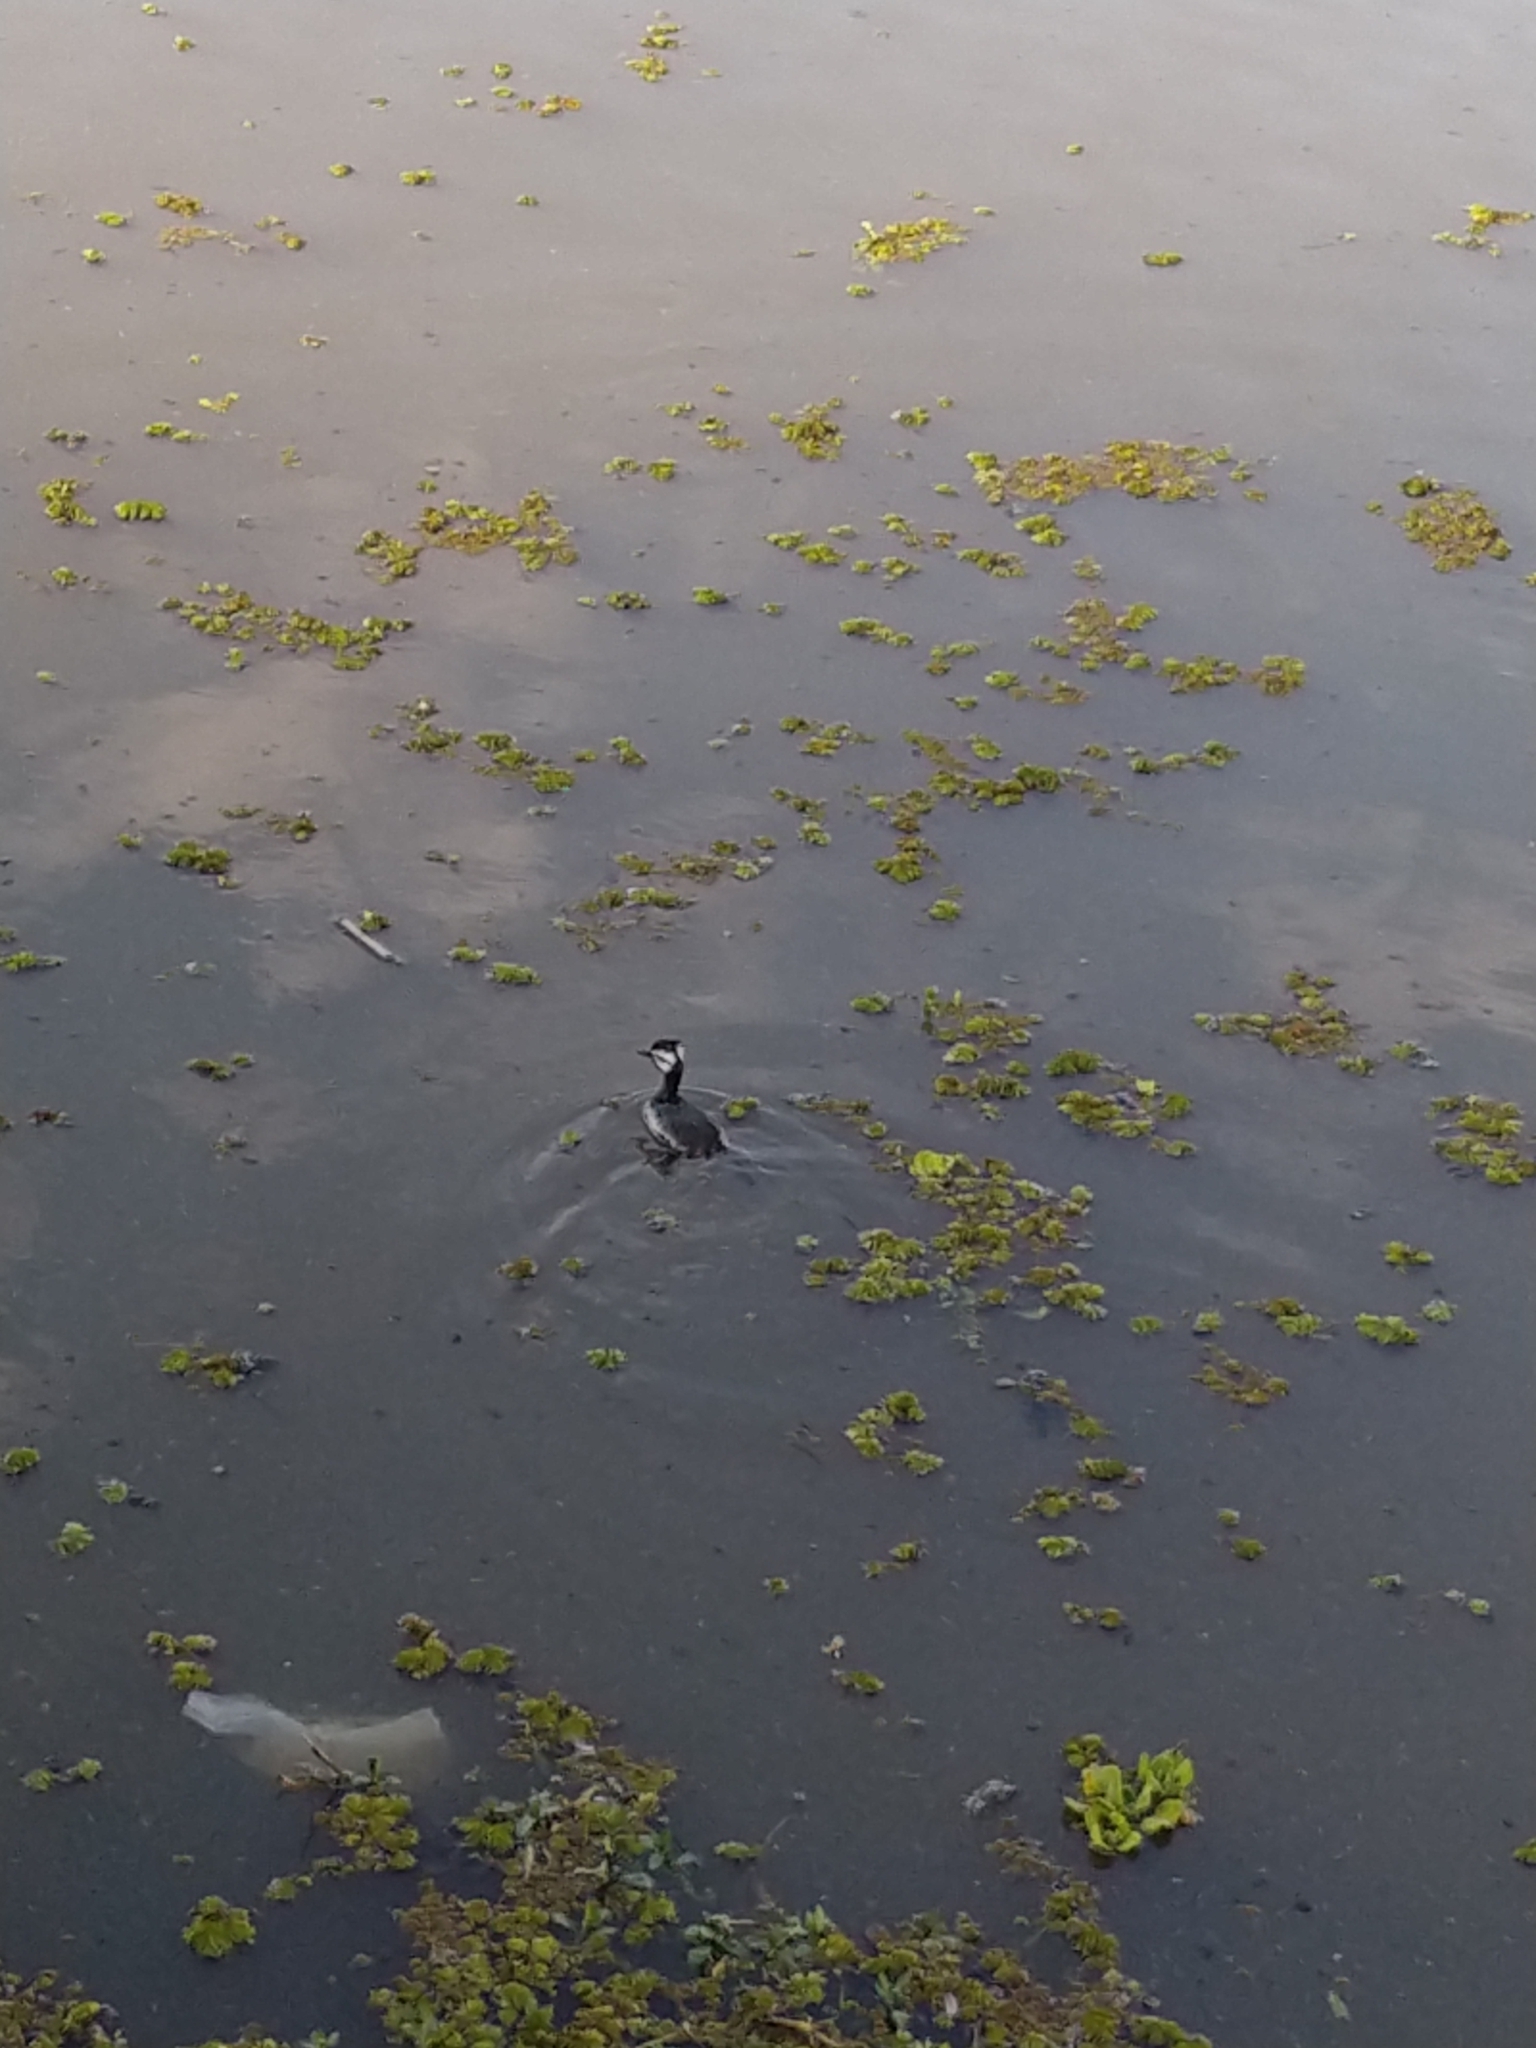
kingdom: Animalia
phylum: Chordata
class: Aves
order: Podicipediformes
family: Podicipedidae
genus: Rollandia
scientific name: Rollandia rolland
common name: White-tufted grebe
